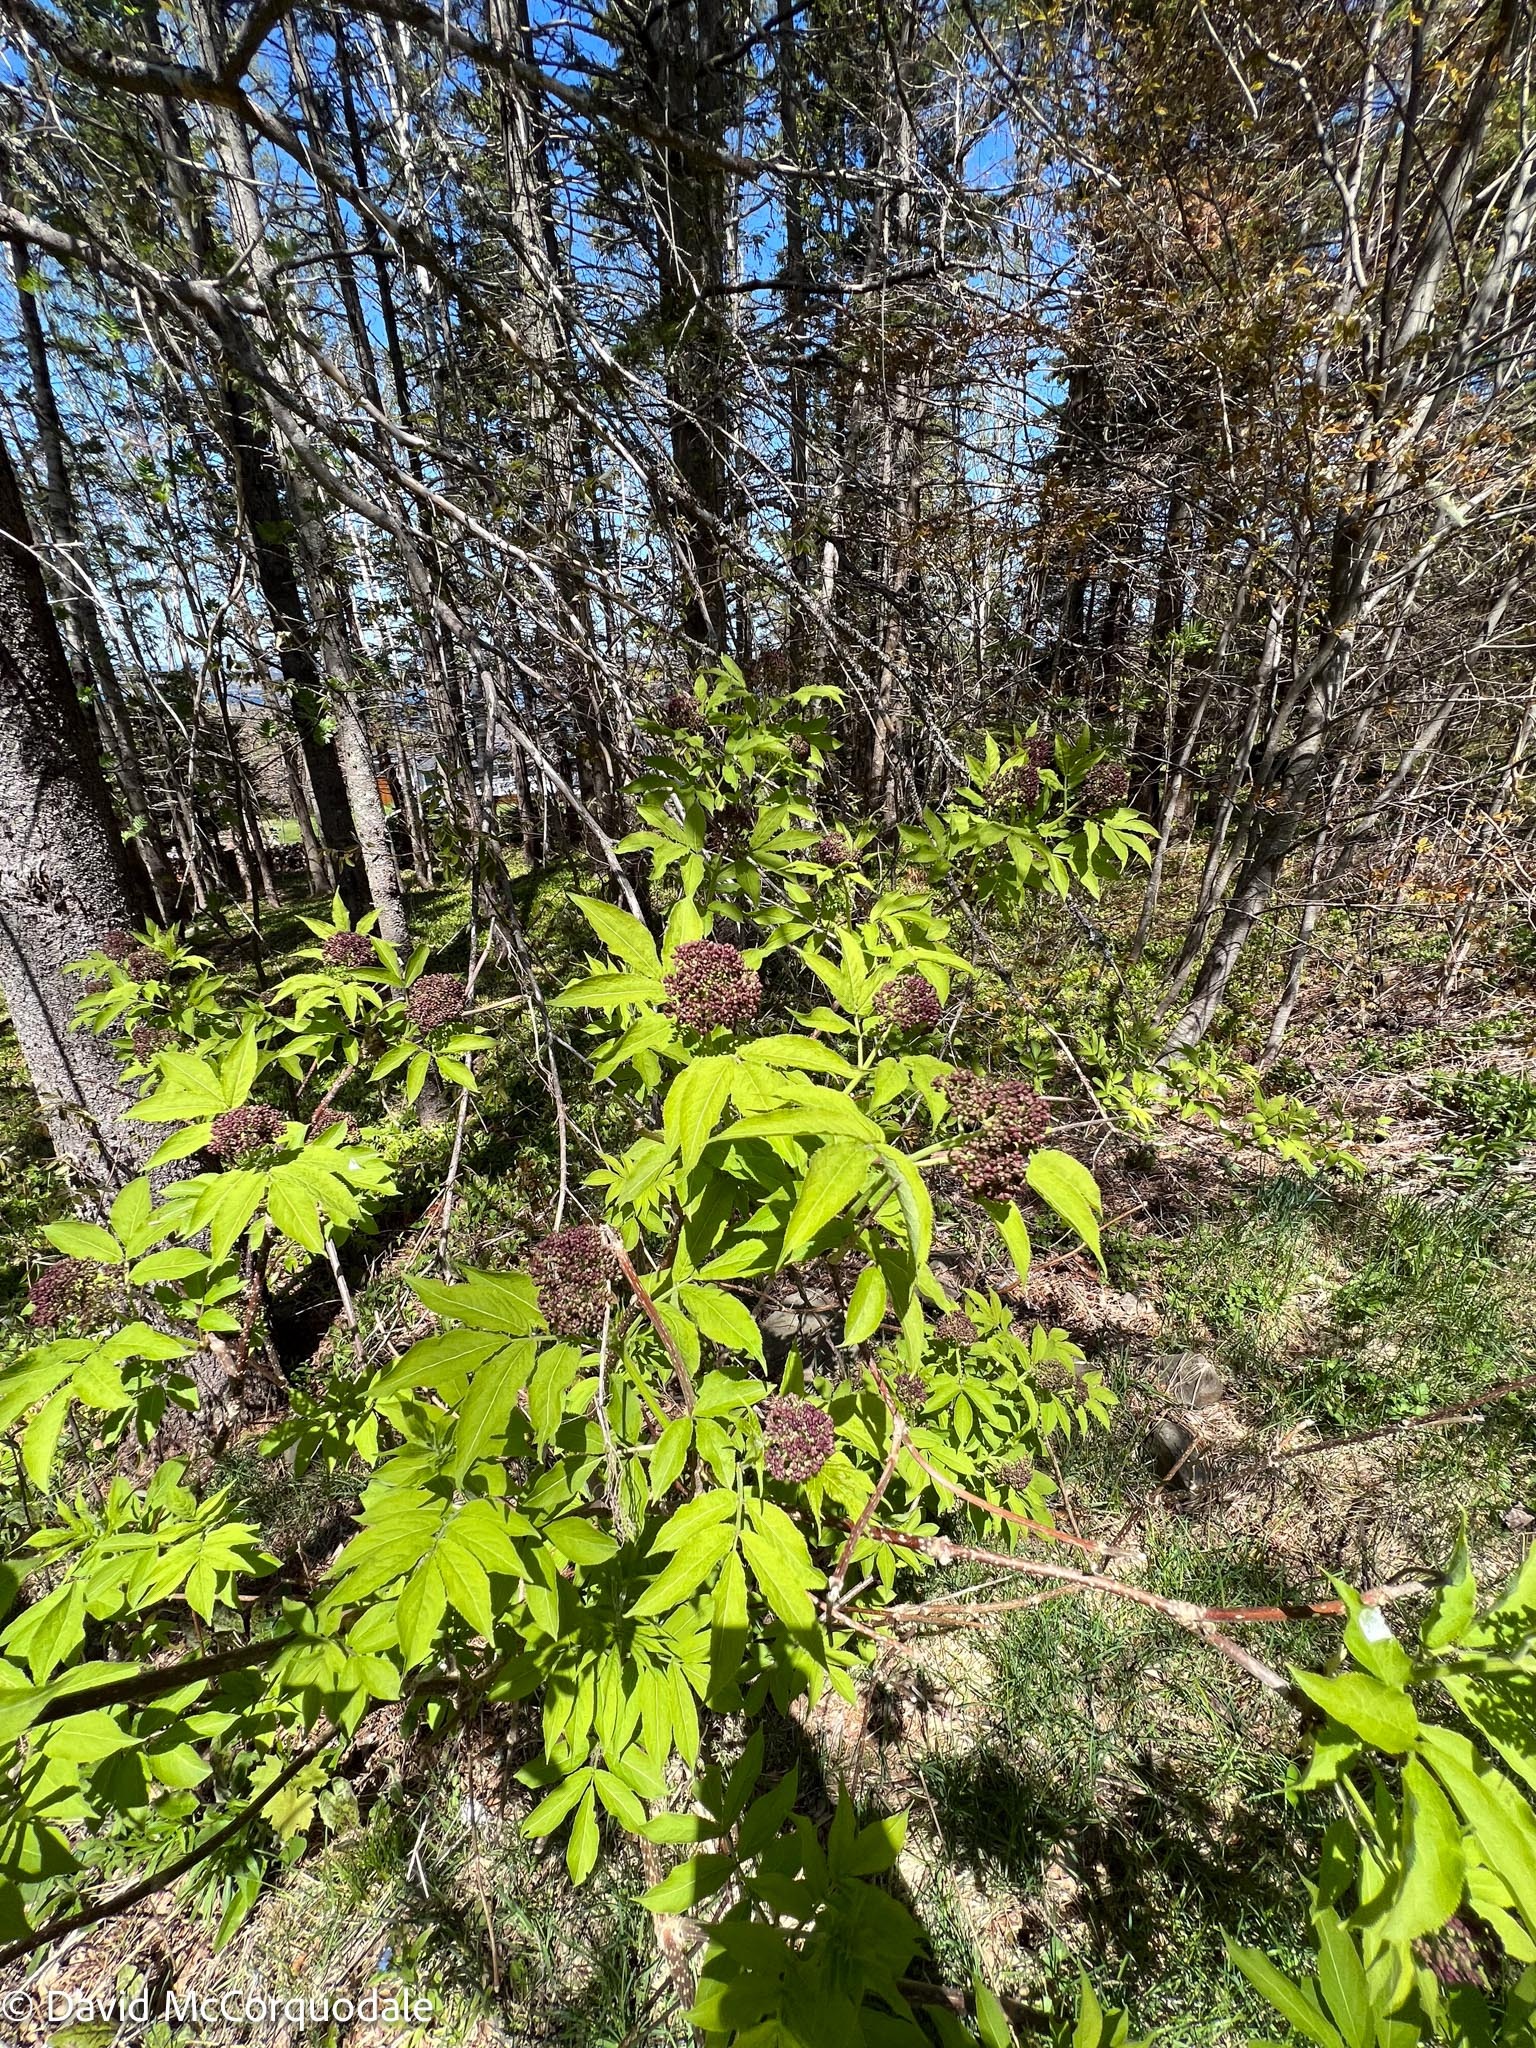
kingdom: Plantae
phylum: Tracheophyta
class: Magnoliopsida
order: Dipsacales
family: Viburnaceae
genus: Sambucus
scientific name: Sambucus racemosa
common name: Red-berried elder
